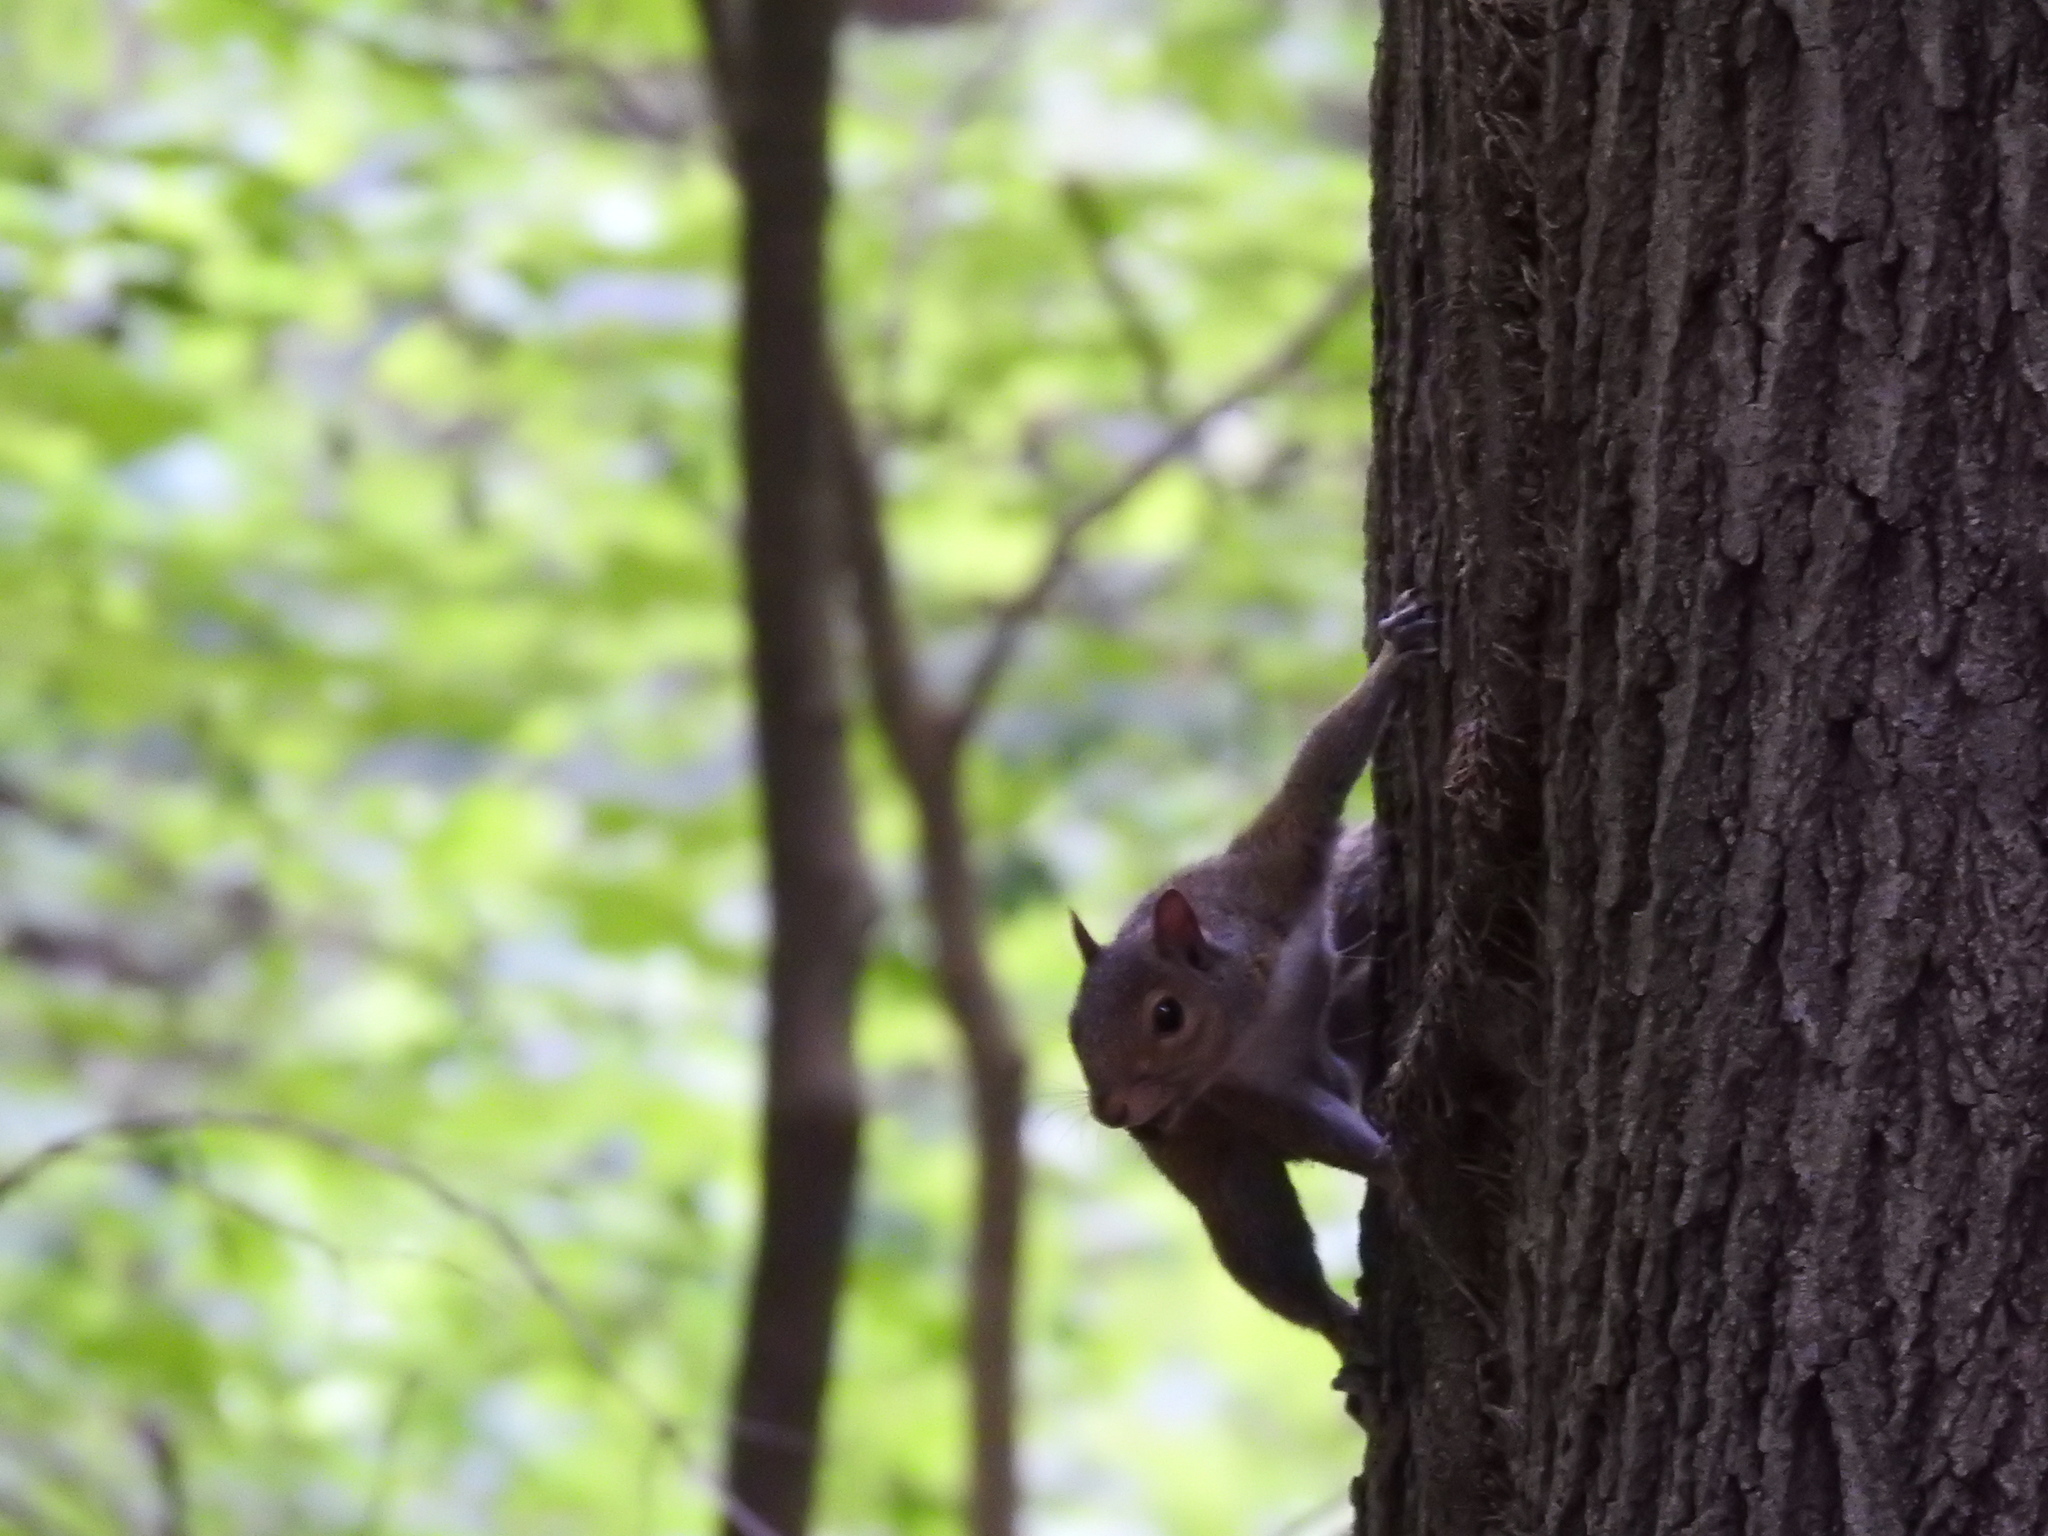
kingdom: Animalia
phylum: Chordata
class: Mammalia
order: Rodentia
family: Sciuridae
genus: Sciurus
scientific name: Sciurus carolinensis
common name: Eastern gray squirrel
